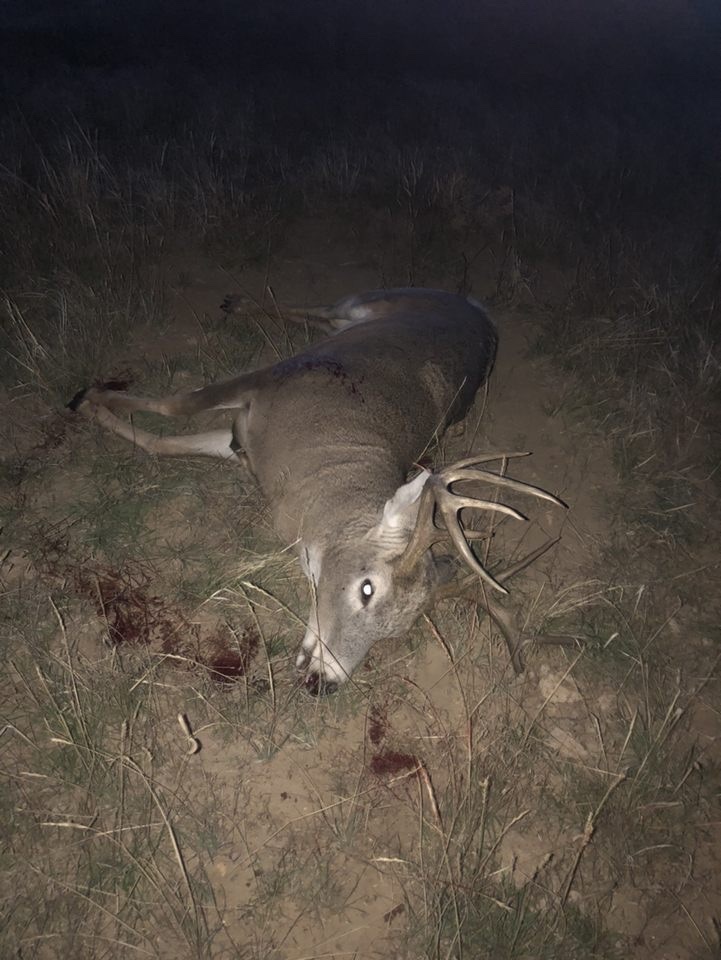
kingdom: Animalia
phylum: Chordata
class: Mammalia
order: Artiodactyla
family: Cervidae
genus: Odocoileus
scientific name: Odocoileus virginianus
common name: White-tailed deer
